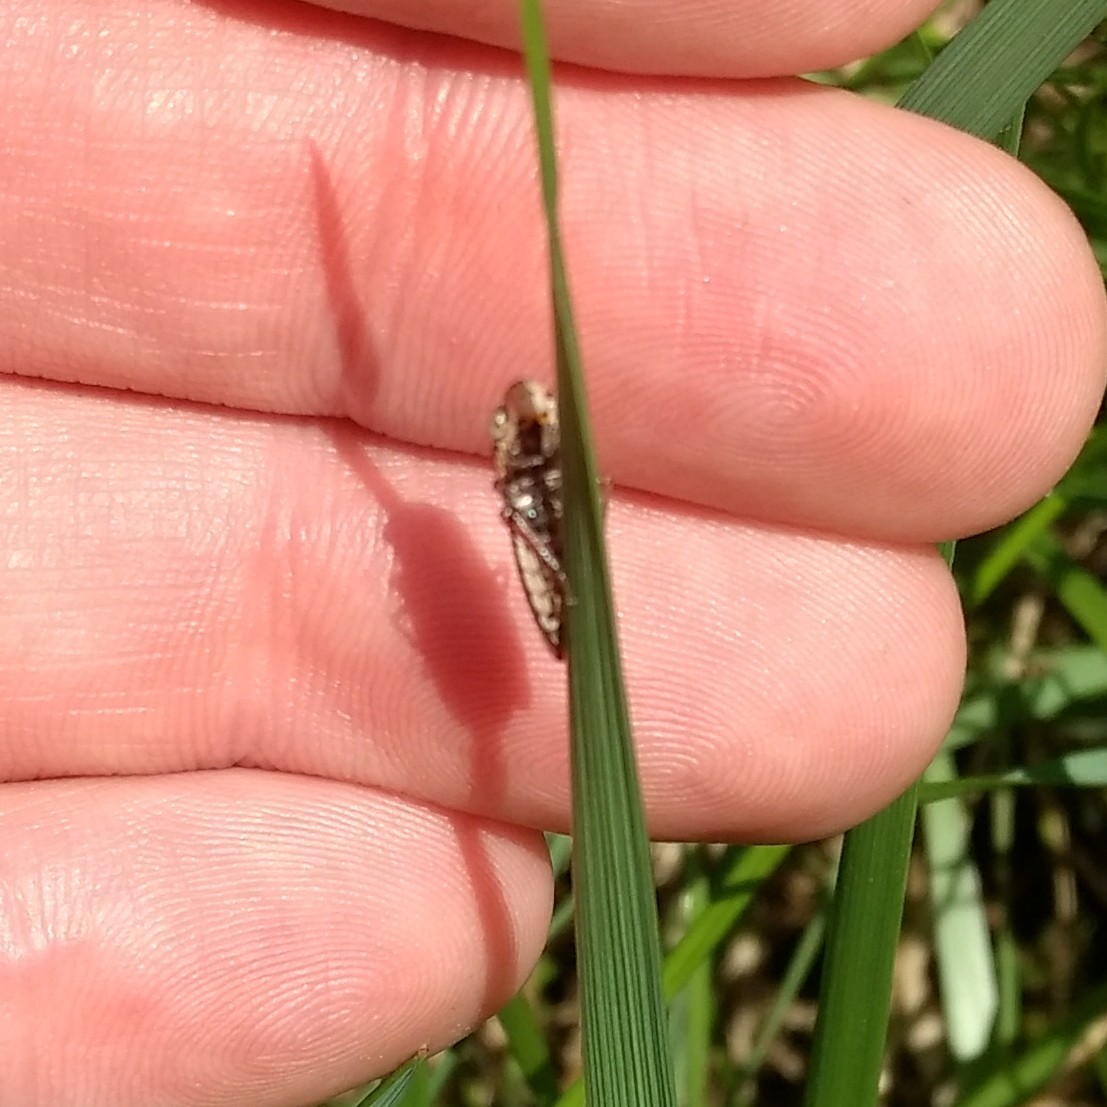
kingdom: Animalia
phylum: Arthropoda
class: Insecta
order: Hemiptera
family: Cicadellidae
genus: Paraulacizes
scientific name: Paraulacizes irrorata
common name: Speckled sharpshooter
